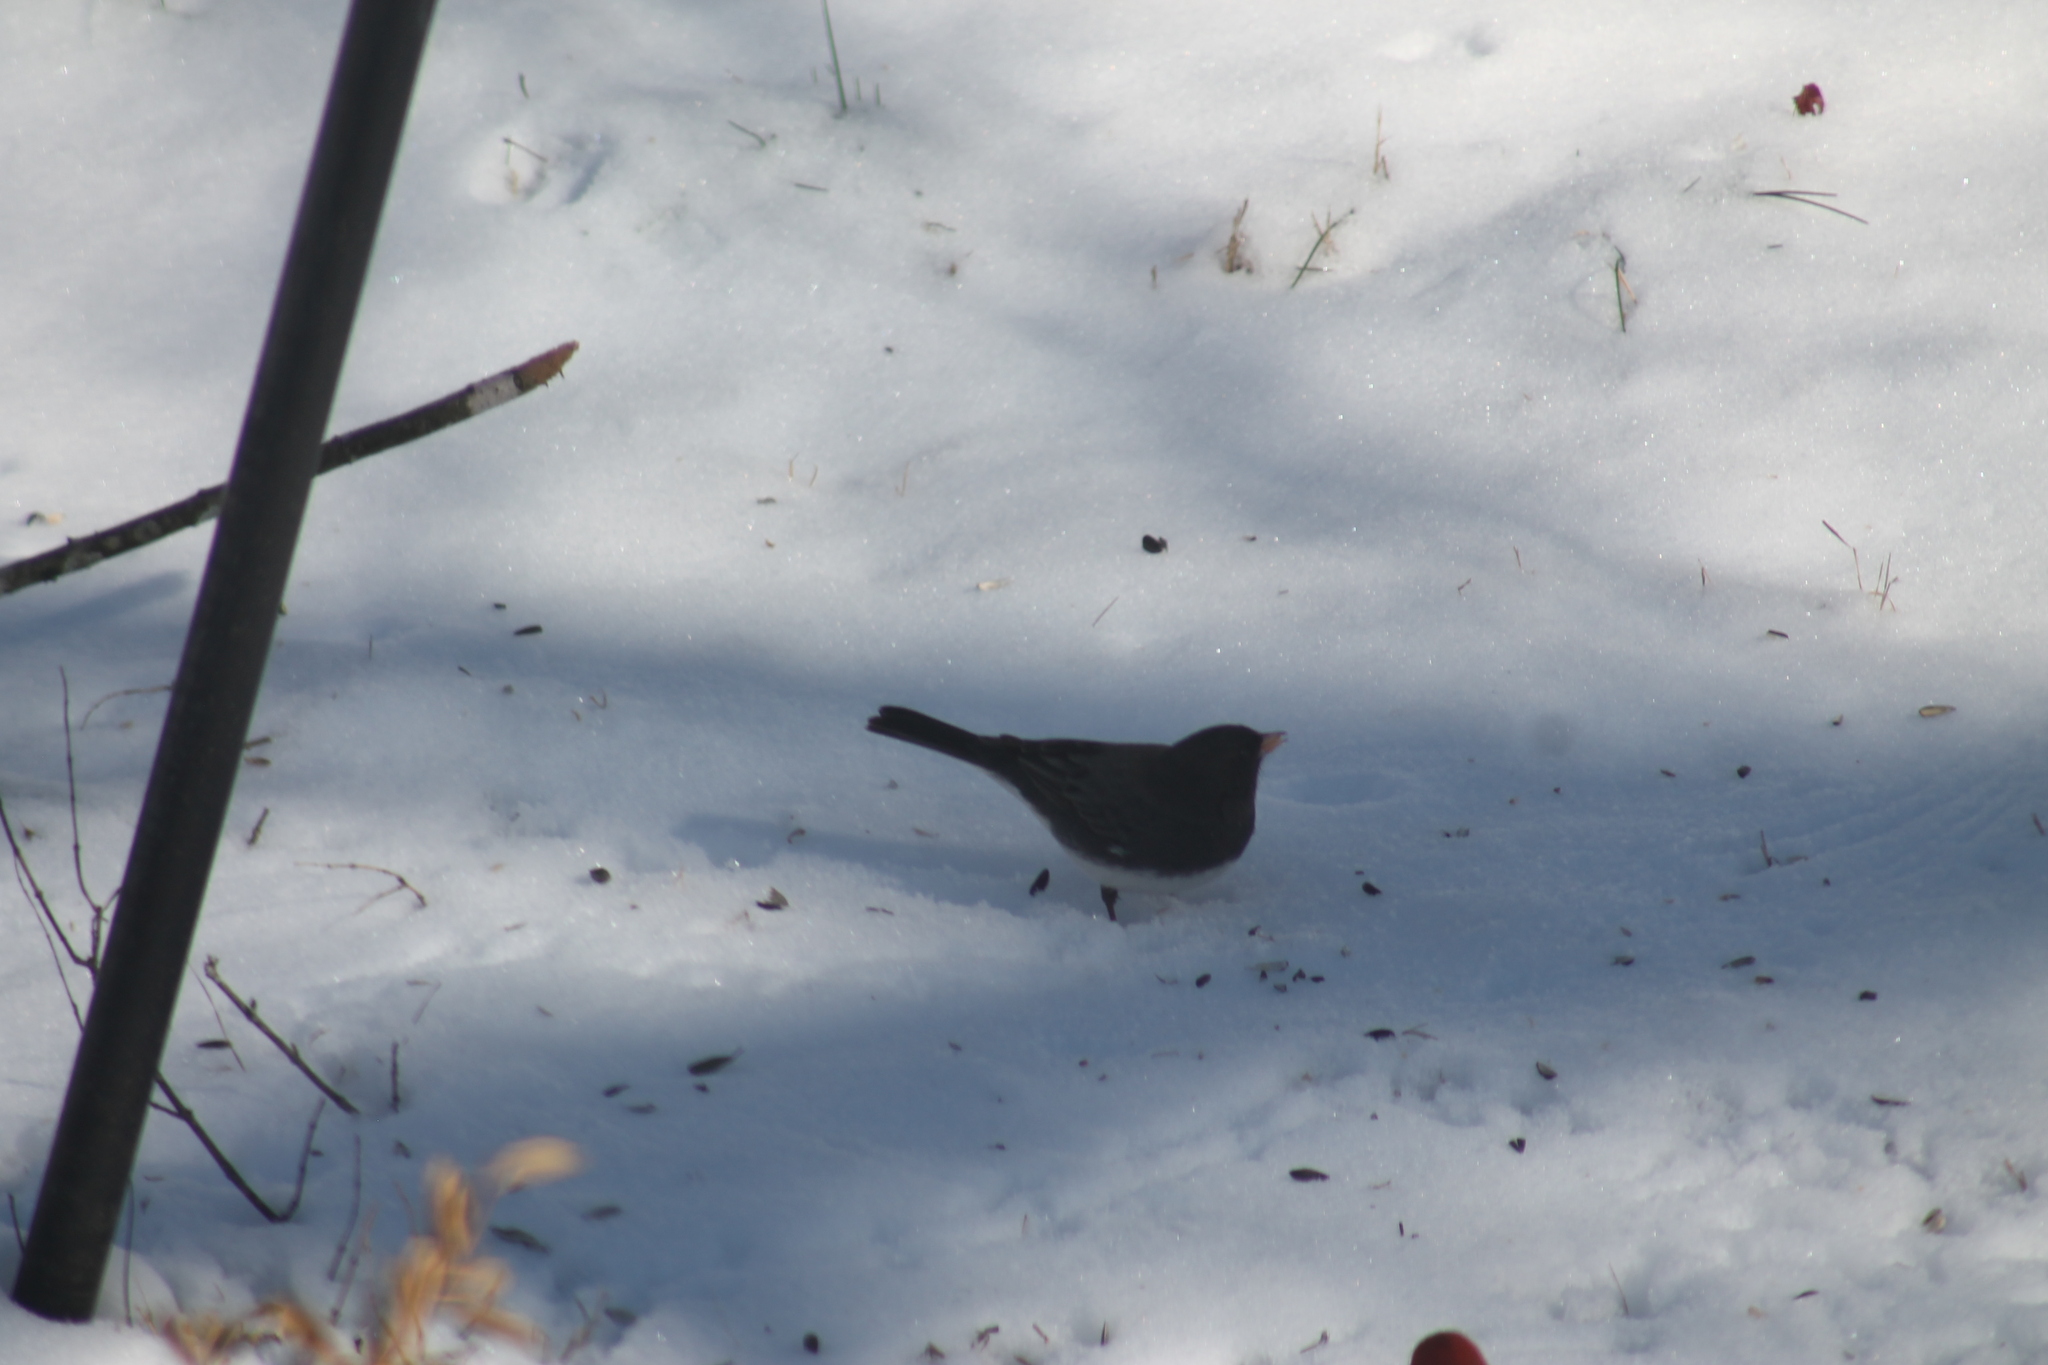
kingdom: Animalia
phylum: Chordata
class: Aves
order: Passeriformes
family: Passerellidae
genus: Junco
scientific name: Junco hyemalis
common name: Dark-eyed junco
